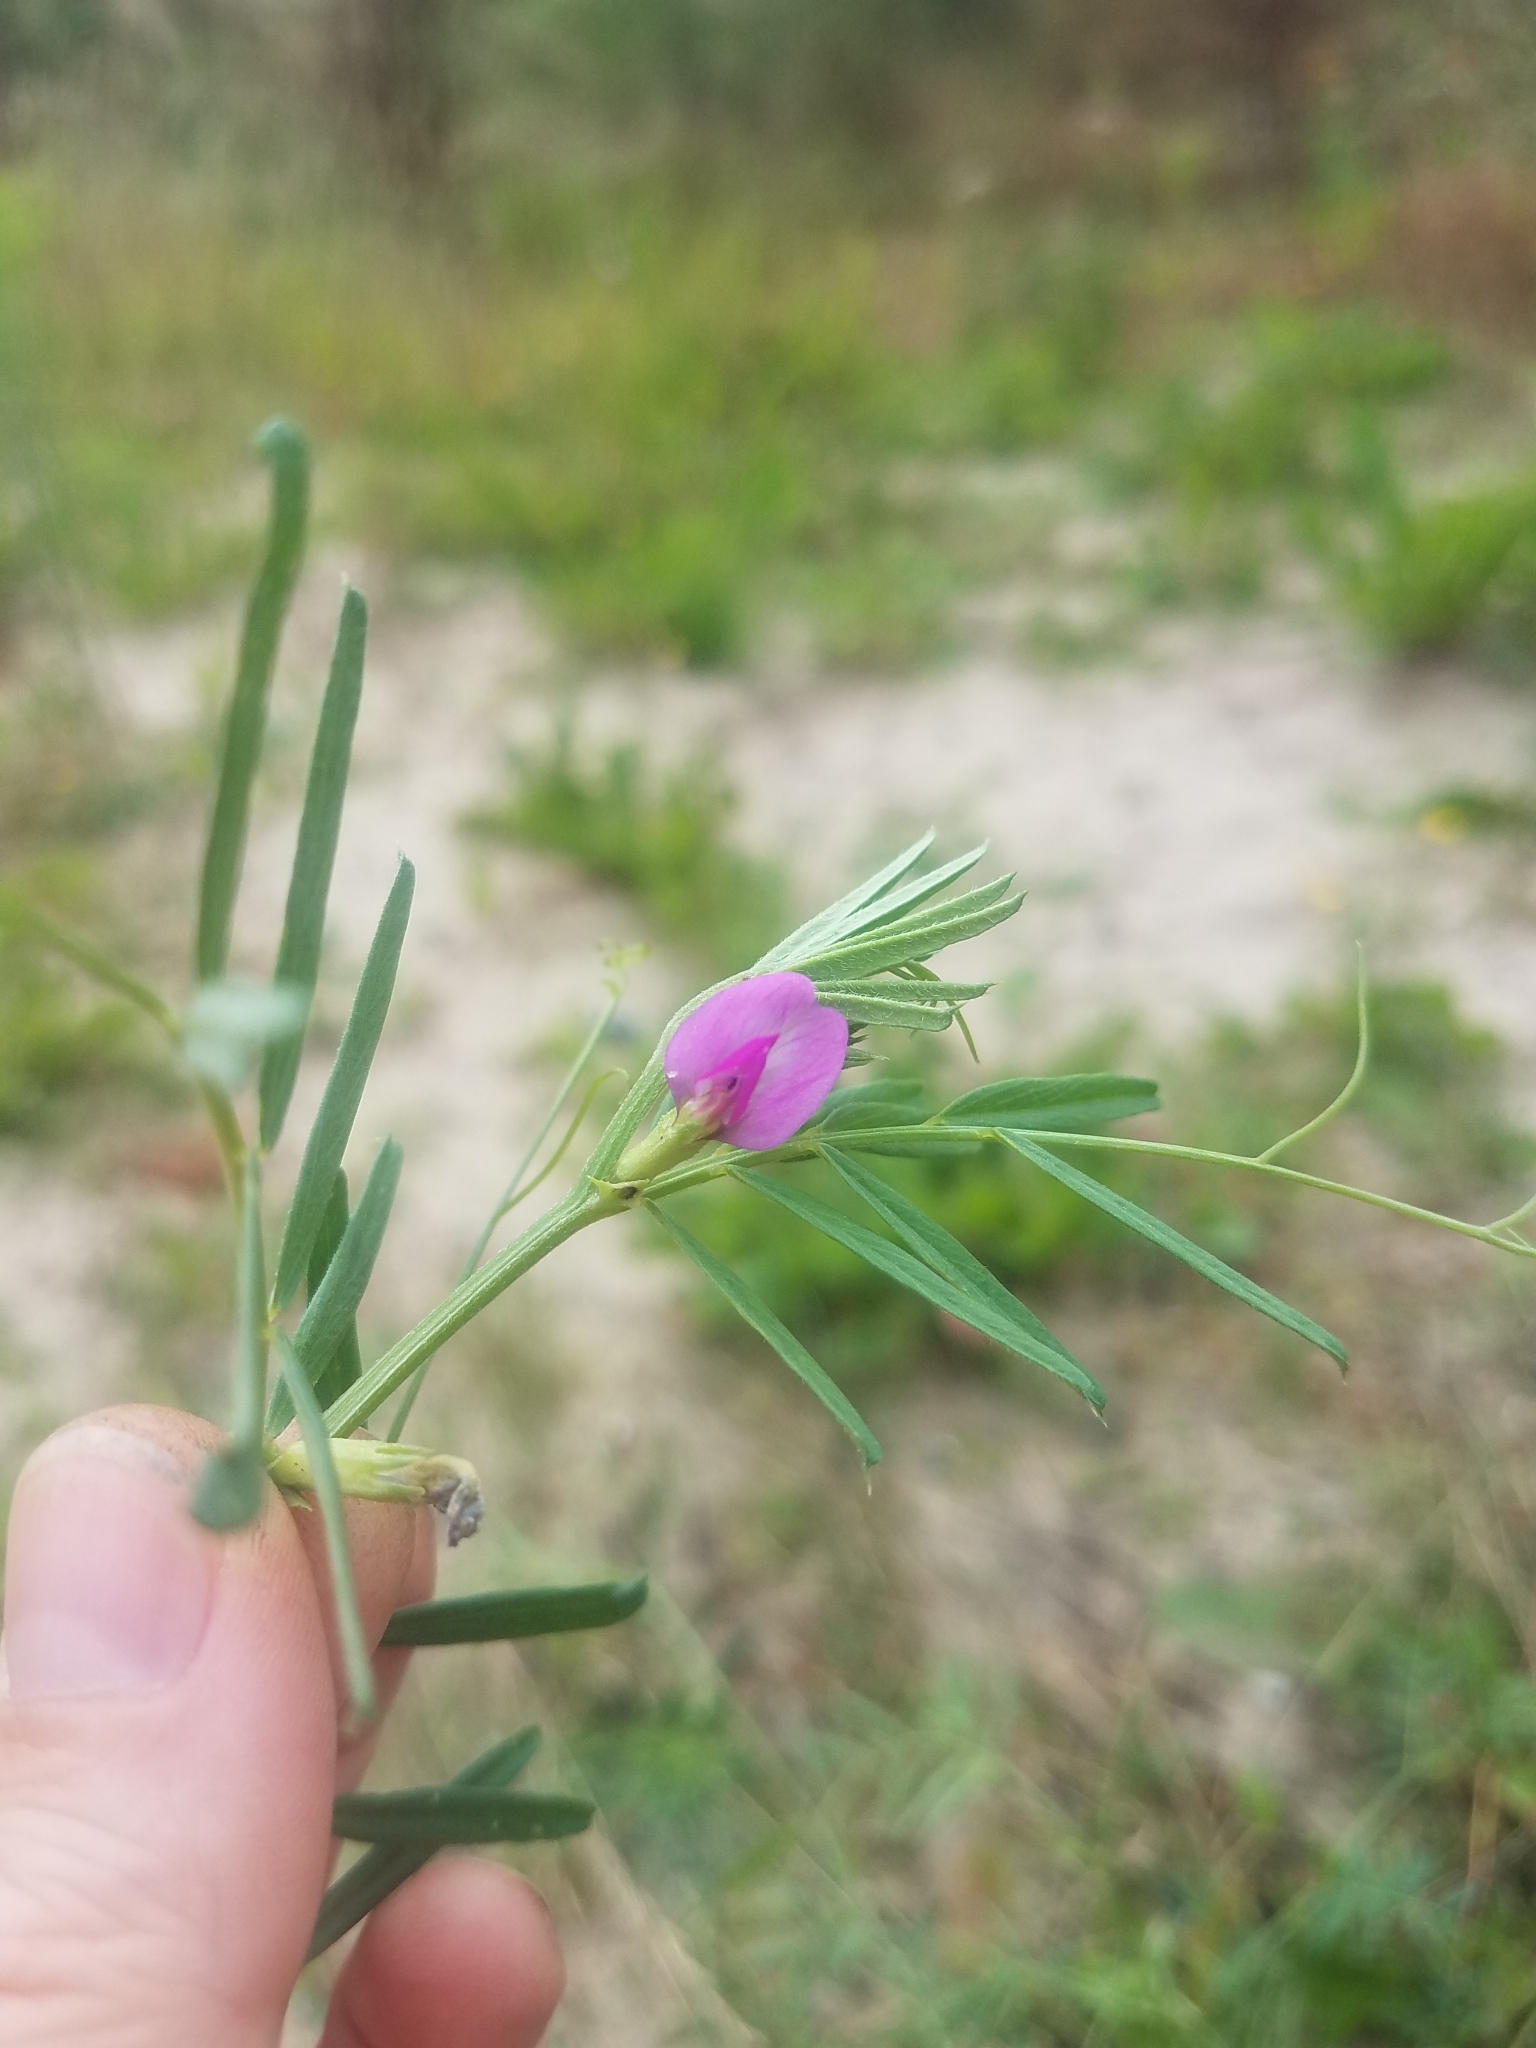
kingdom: Plantae
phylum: Tracheophyta
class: Magnoliopsida
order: Fabales
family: Fabaceae
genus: Vicia
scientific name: Vicia sativa
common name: Garden vetch
